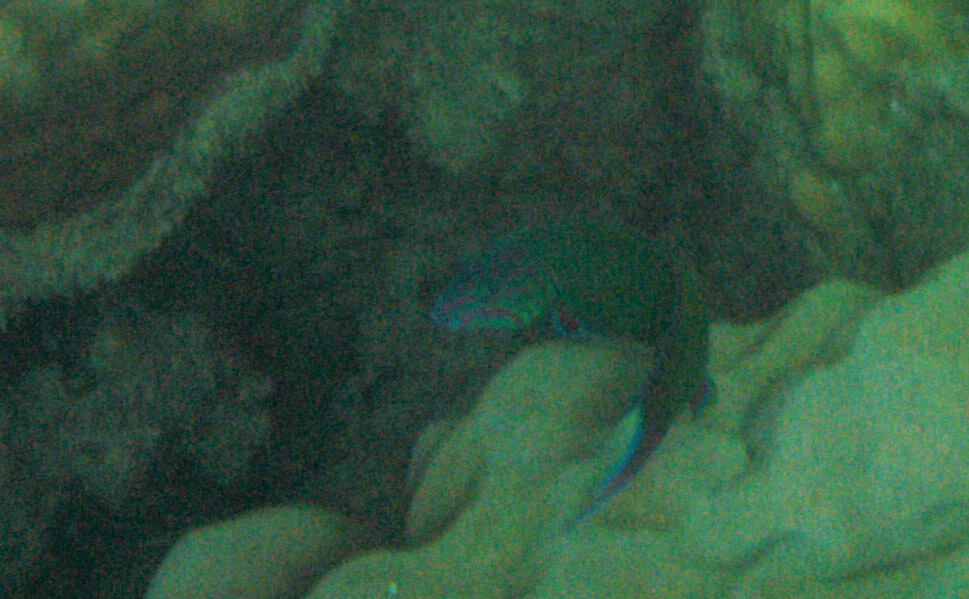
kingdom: Animalia
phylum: Chordata
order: Perciformes
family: Labridae
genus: Thalassoma
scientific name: Thalassoma lunare
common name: Blue wrasse
